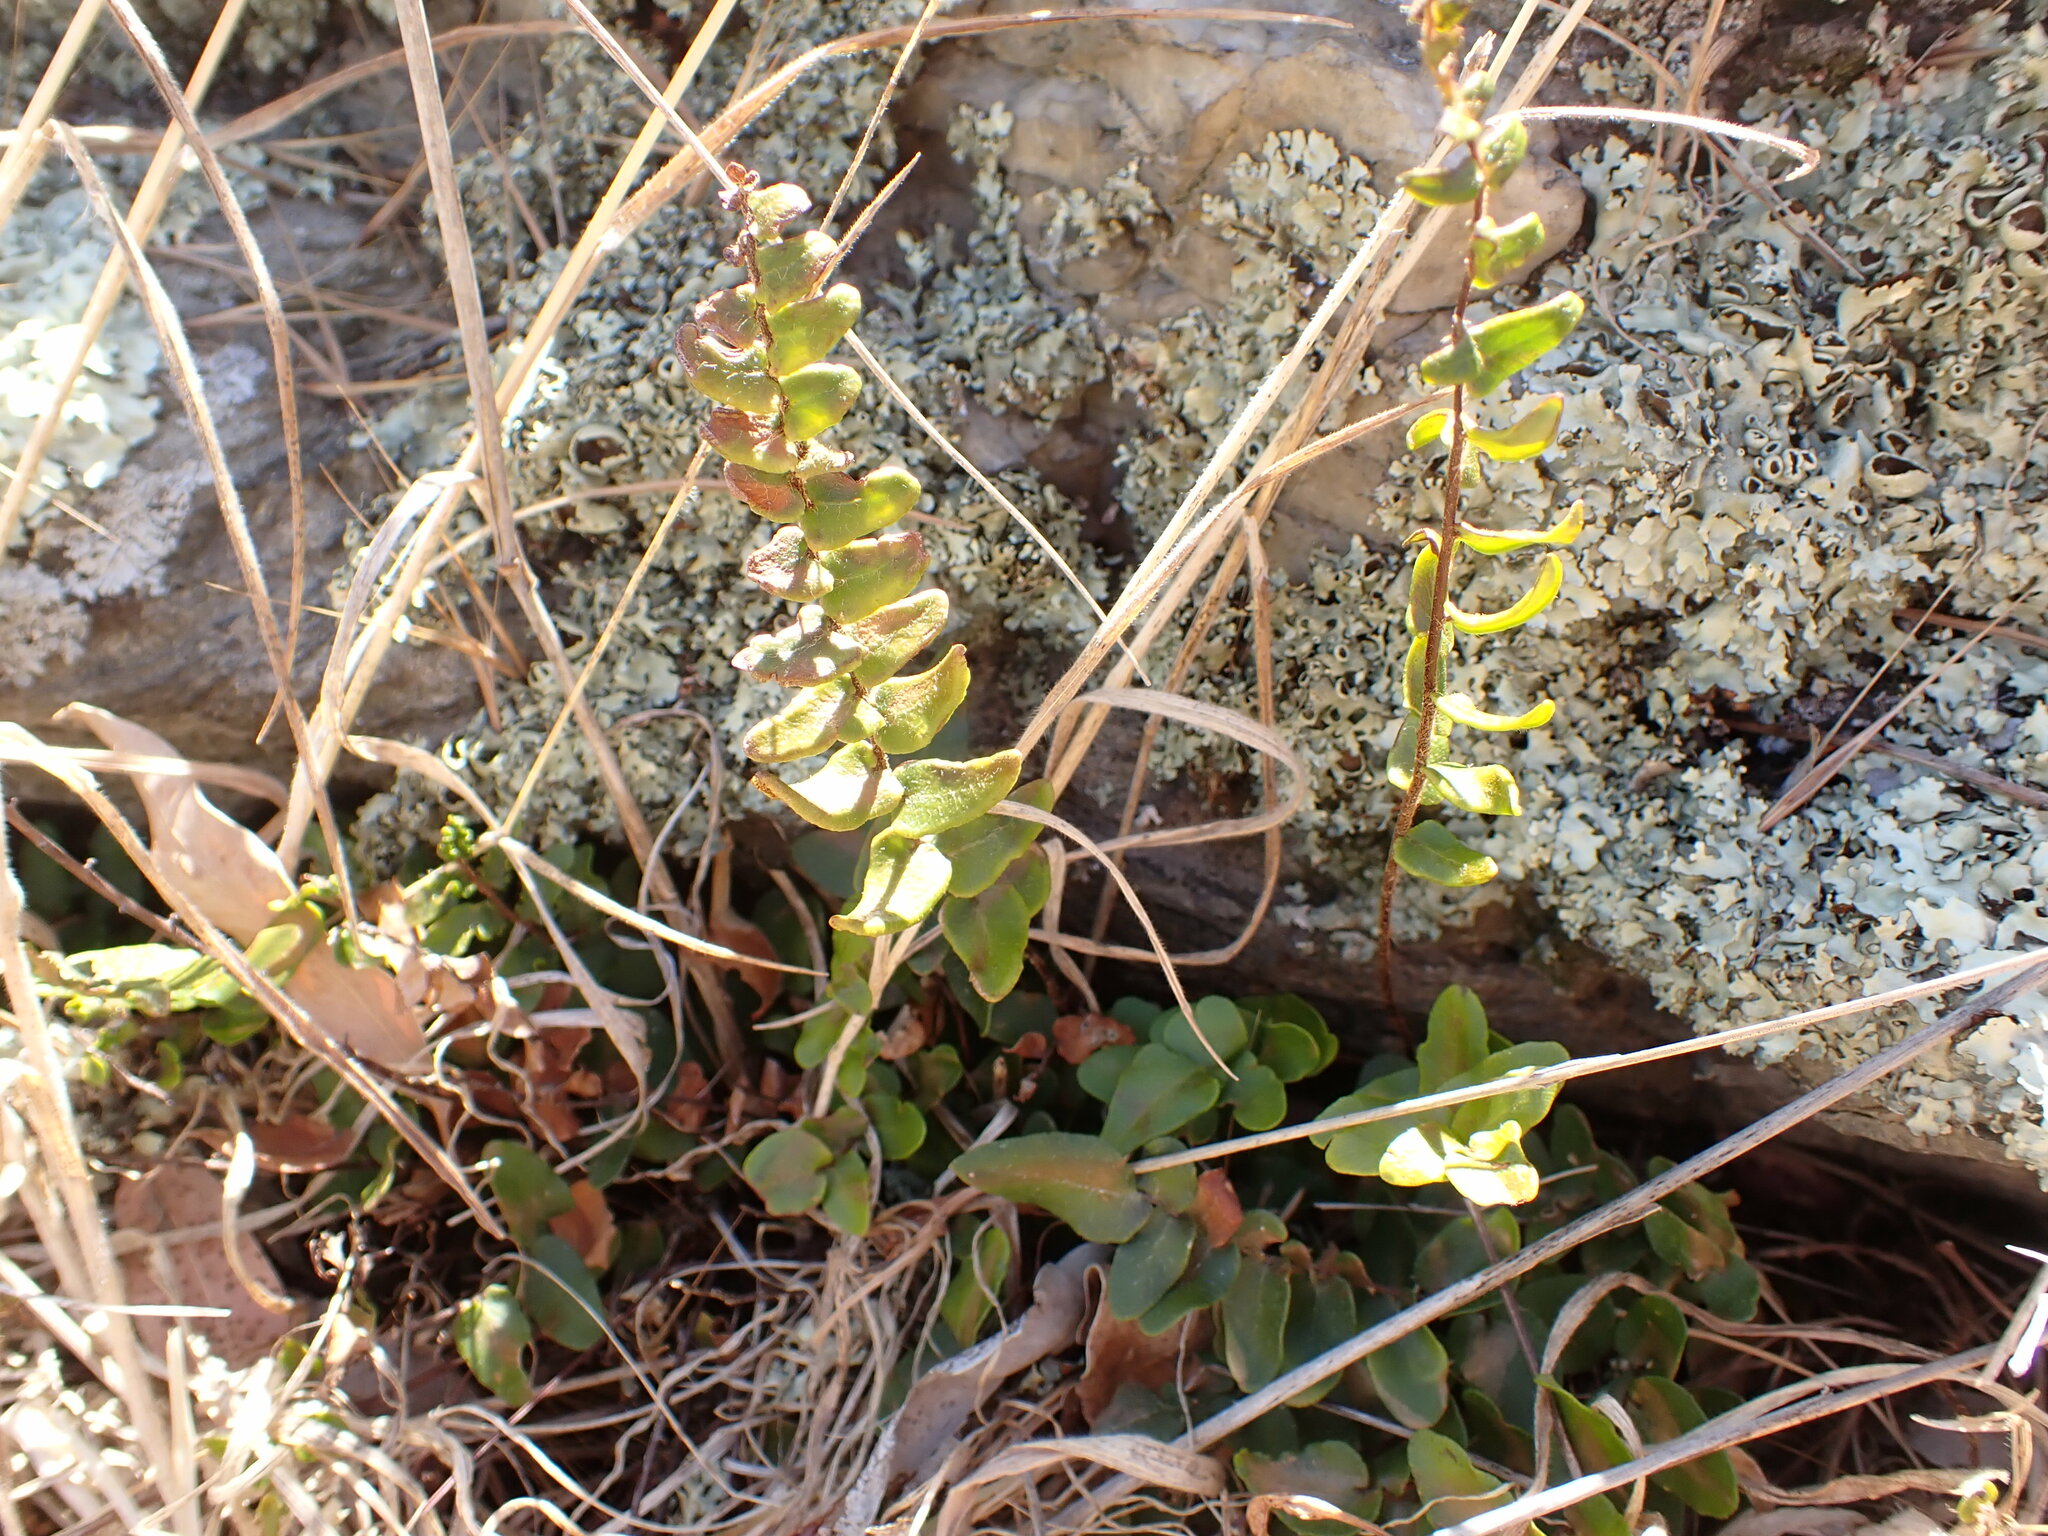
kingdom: Plantae
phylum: Tracheophyta
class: Polypodiopsida
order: Polypodiales
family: Pteridaceae
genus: Pellaea
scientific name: Pellaea calidirupium
